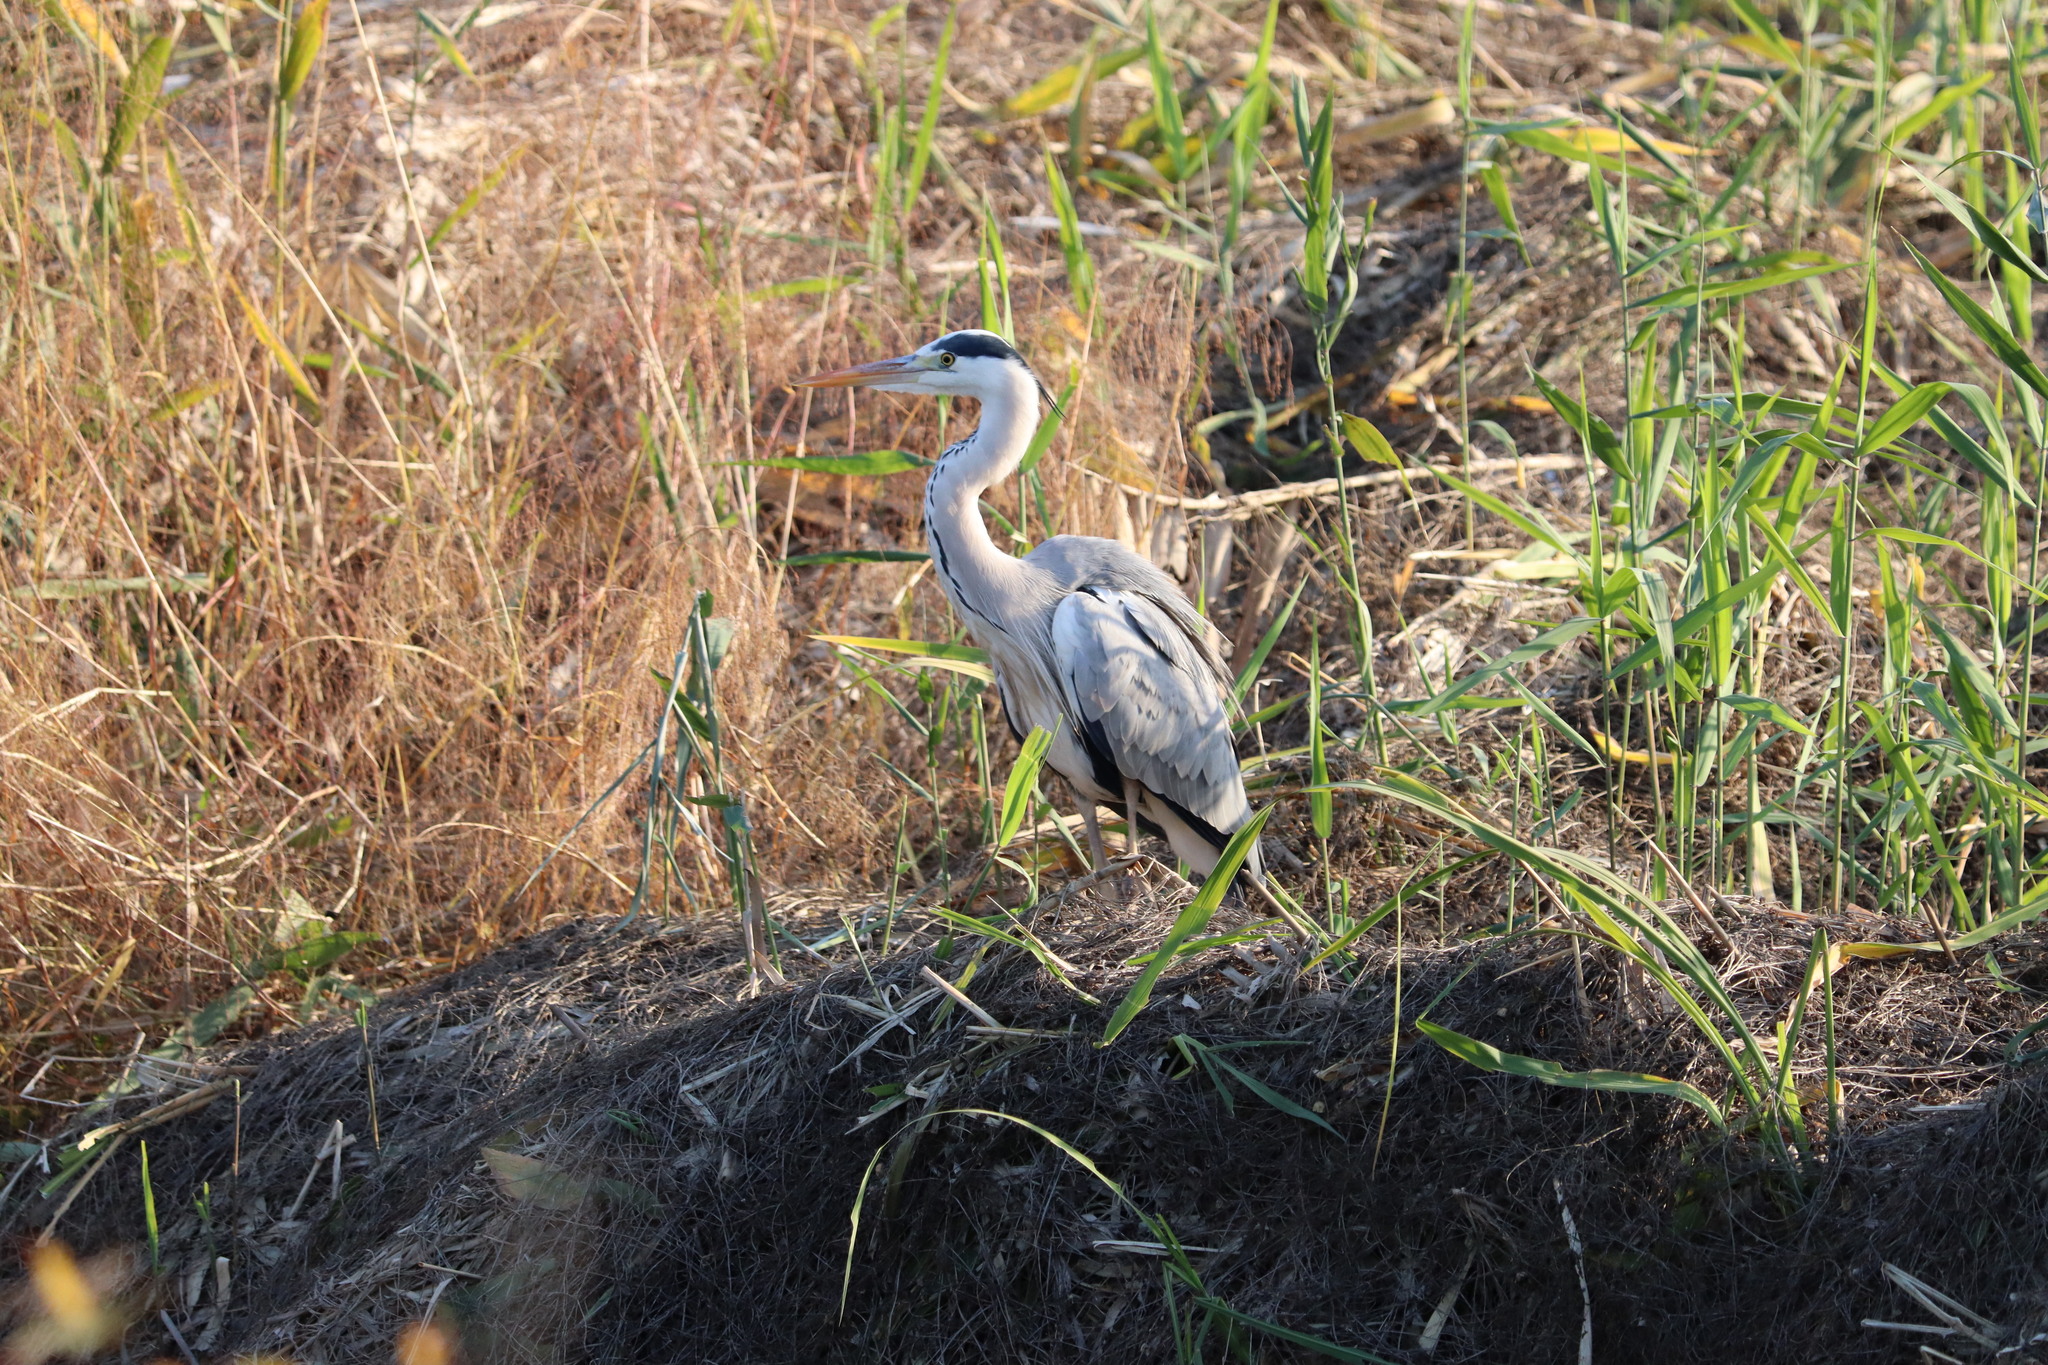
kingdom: Animalia
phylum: Chordata
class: Aves
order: Pelecaniformes
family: Ardeidae
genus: Ardea
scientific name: Ardea cinerea
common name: Grey heron
